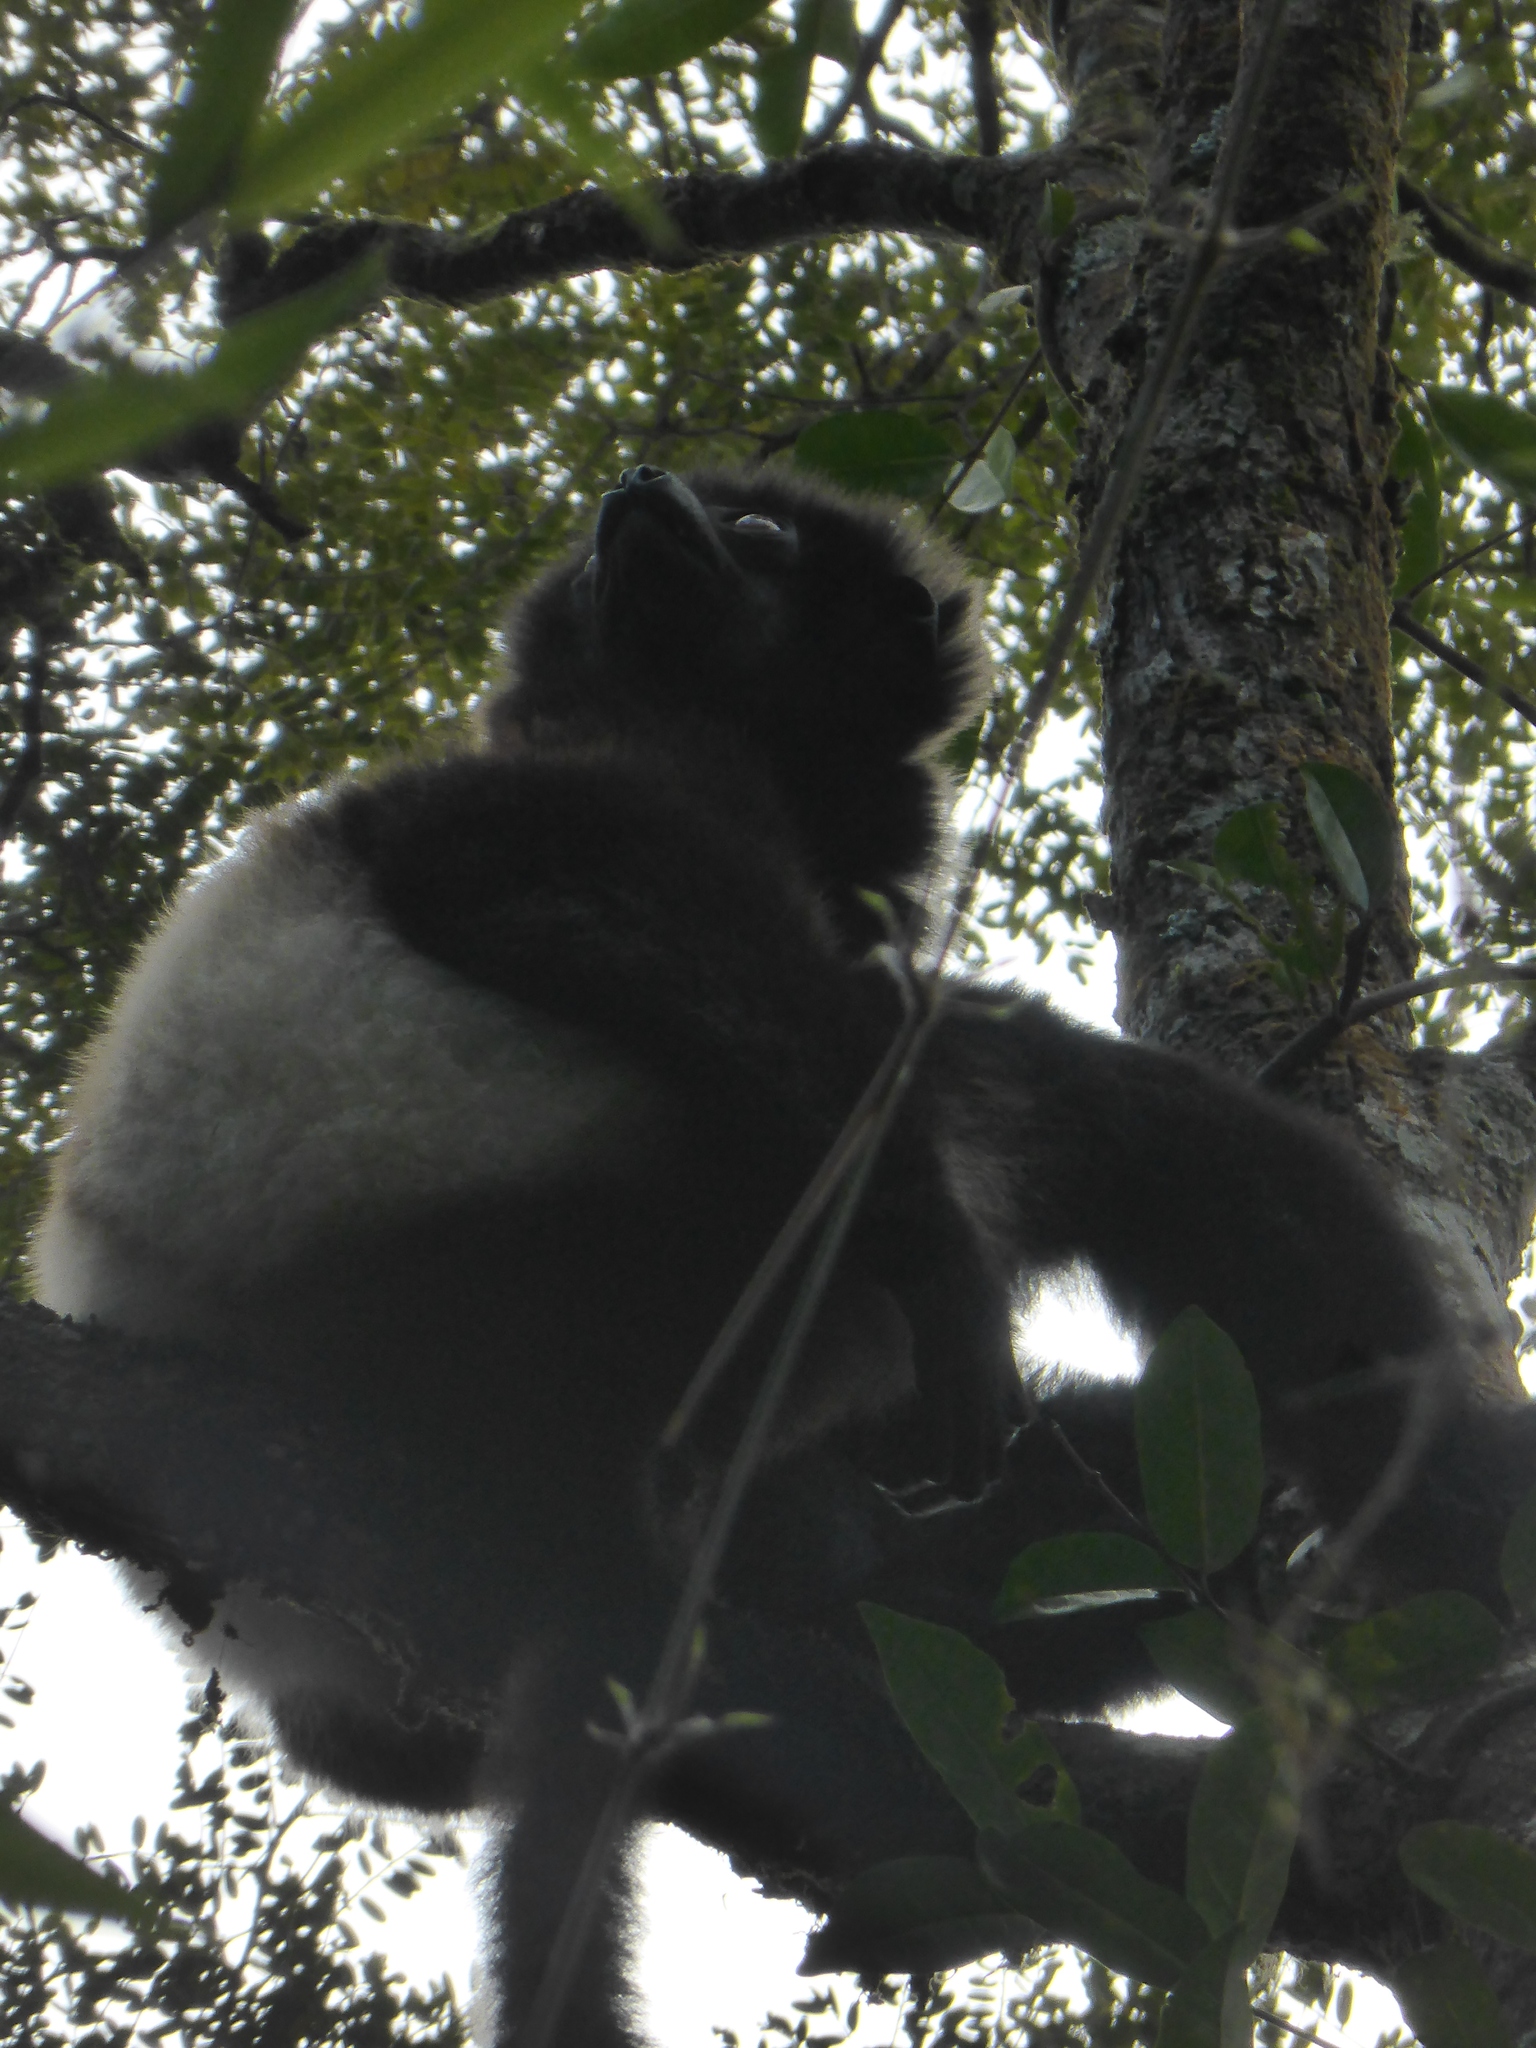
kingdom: Animalia
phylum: Chordata
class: Mammalia
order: Primates
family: Indriidae
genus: Propithecus
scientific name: Propithecus edwardsi
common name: Milne-edwards’s simpona
